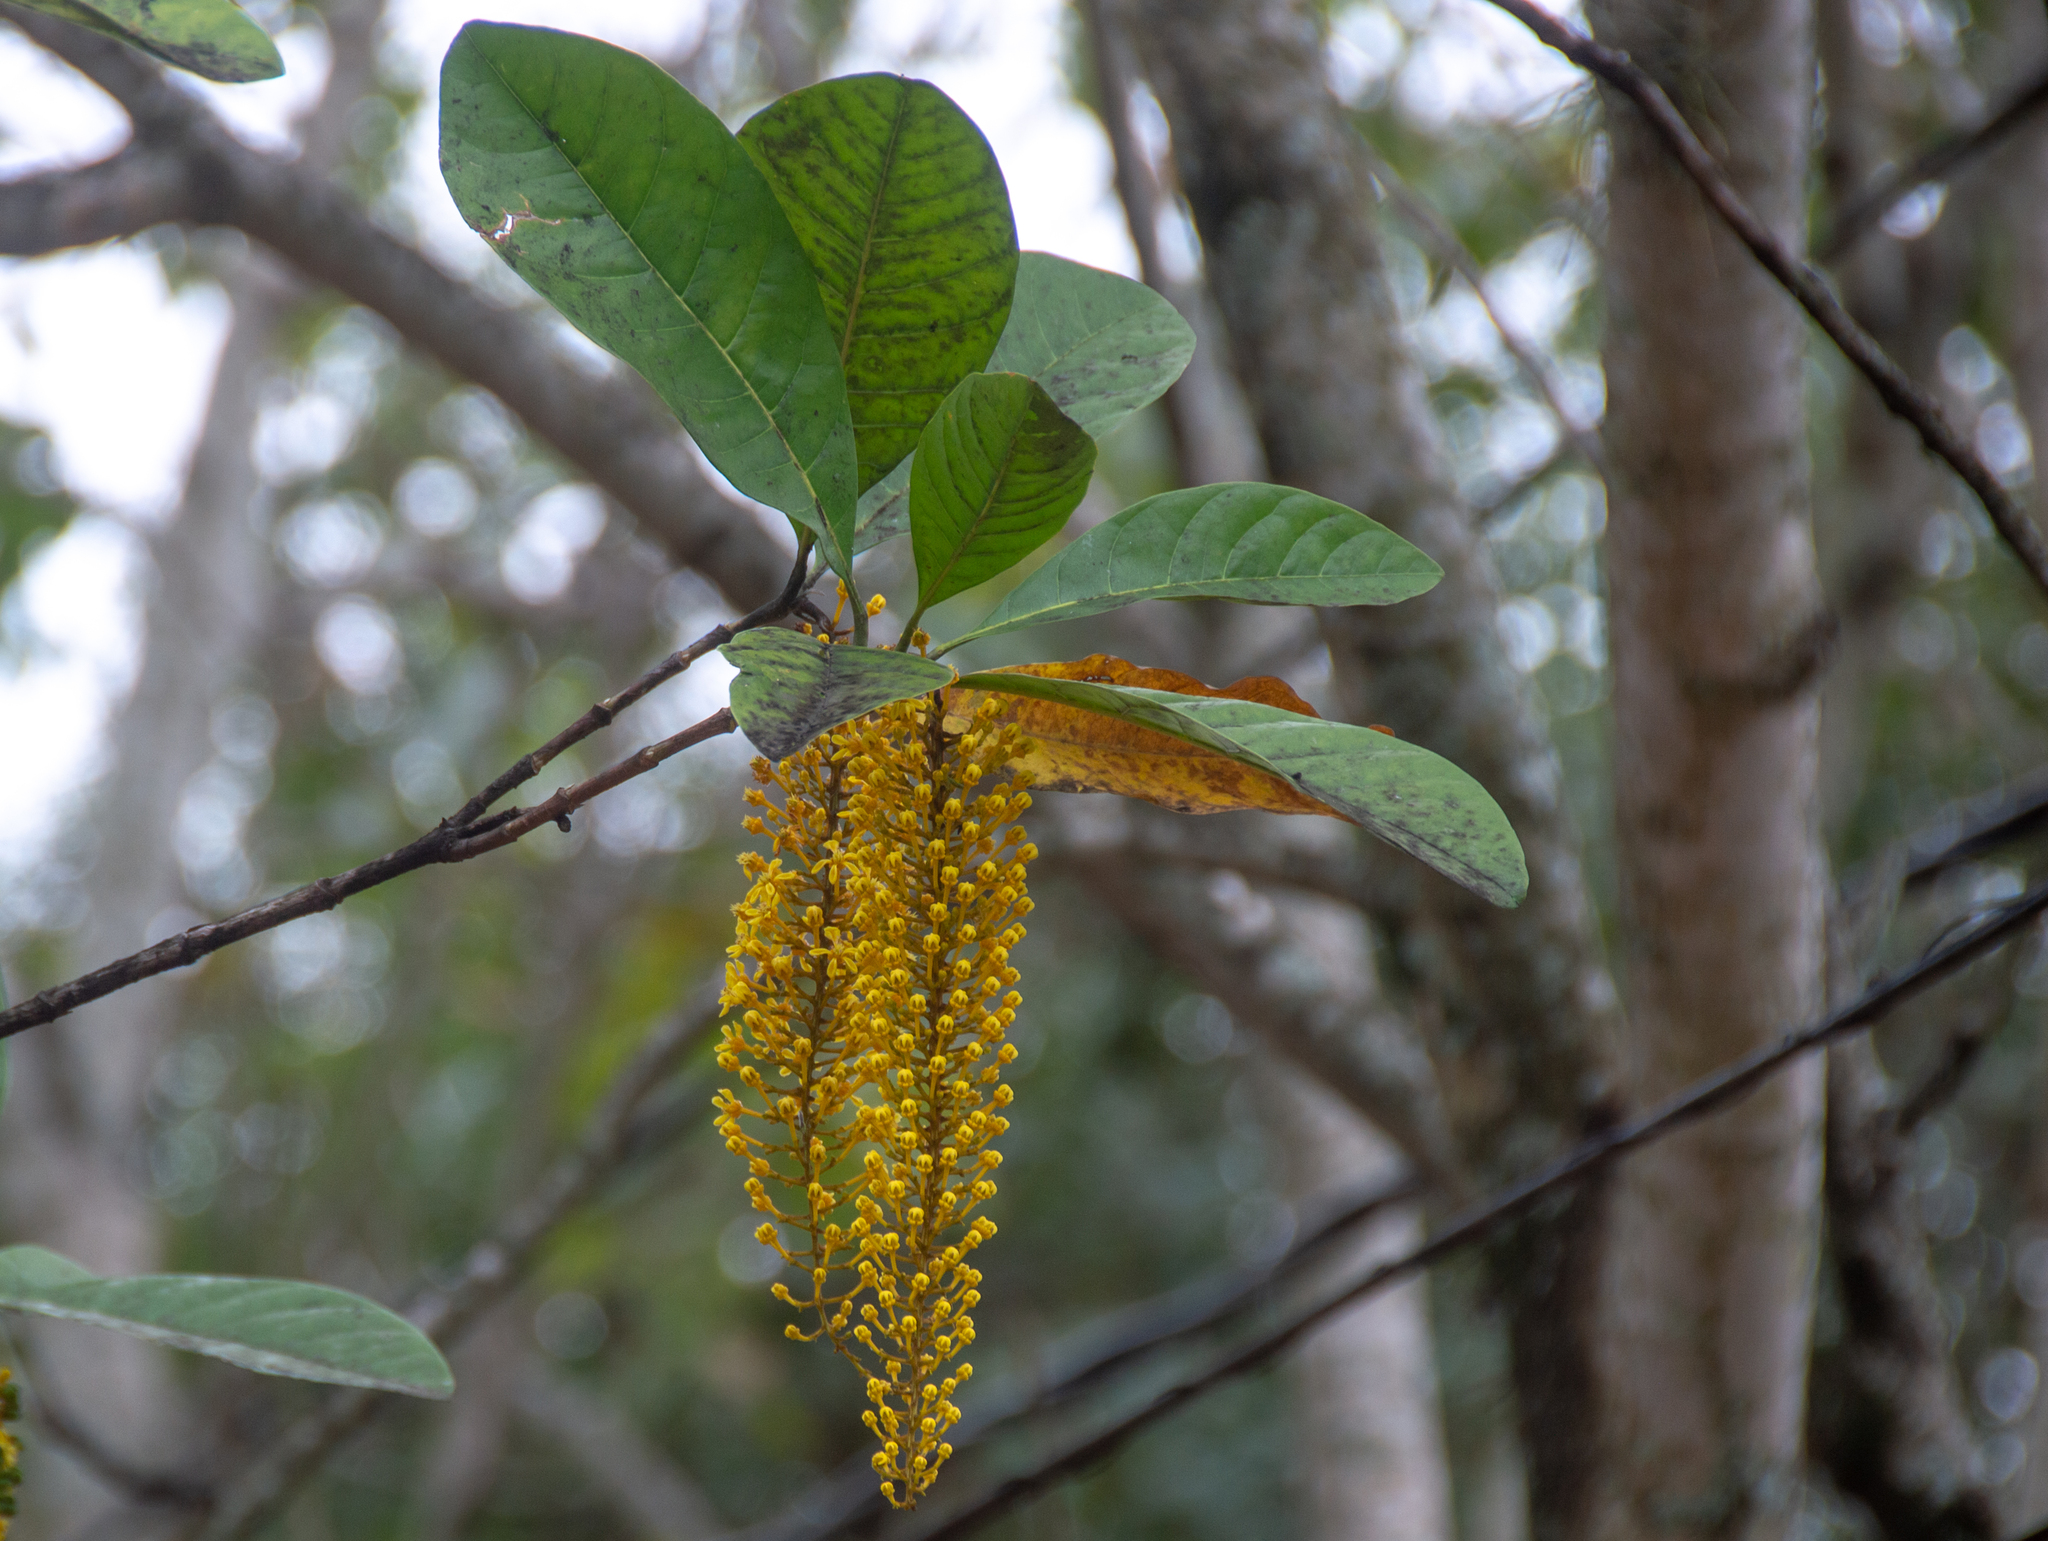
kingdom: Plantae
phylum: Tracheophyta
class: Magnoliopsida
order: Malpighiales
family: Malpighiaceae
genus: Lophanthera
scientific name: Lophanthera lactescens
